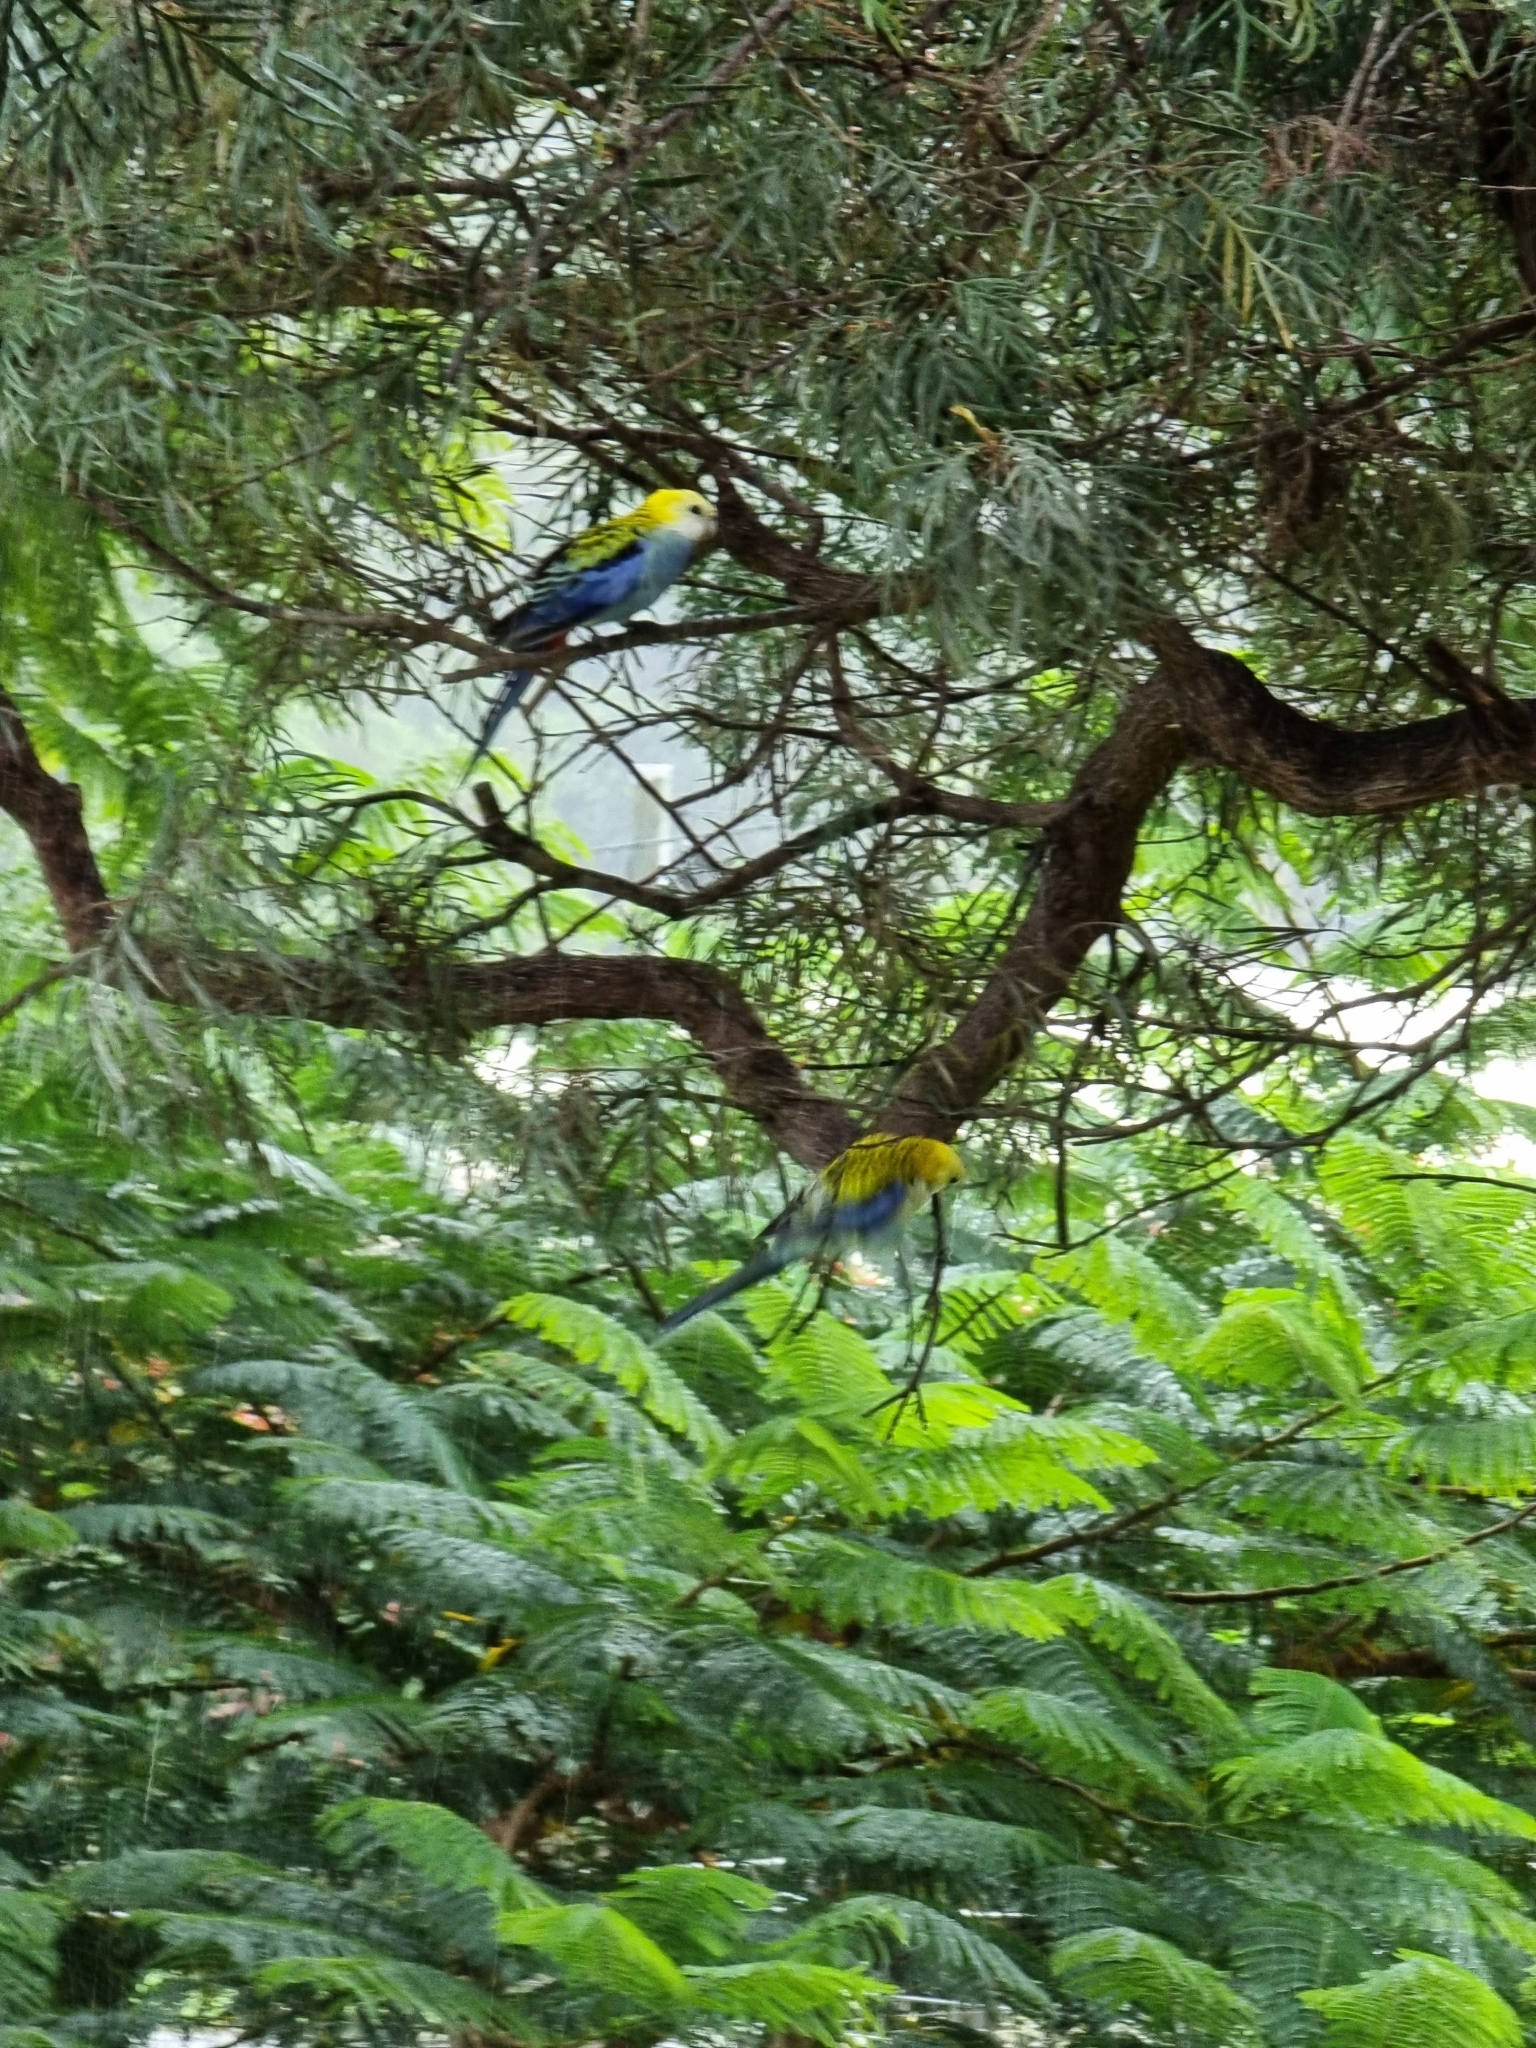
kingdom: Animalia
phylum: Chordata
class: Aves
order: Psittaciformes
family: Psittacidae
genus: Platycercus
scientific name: Platycercus adscitus
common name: Pale-headed rosella
